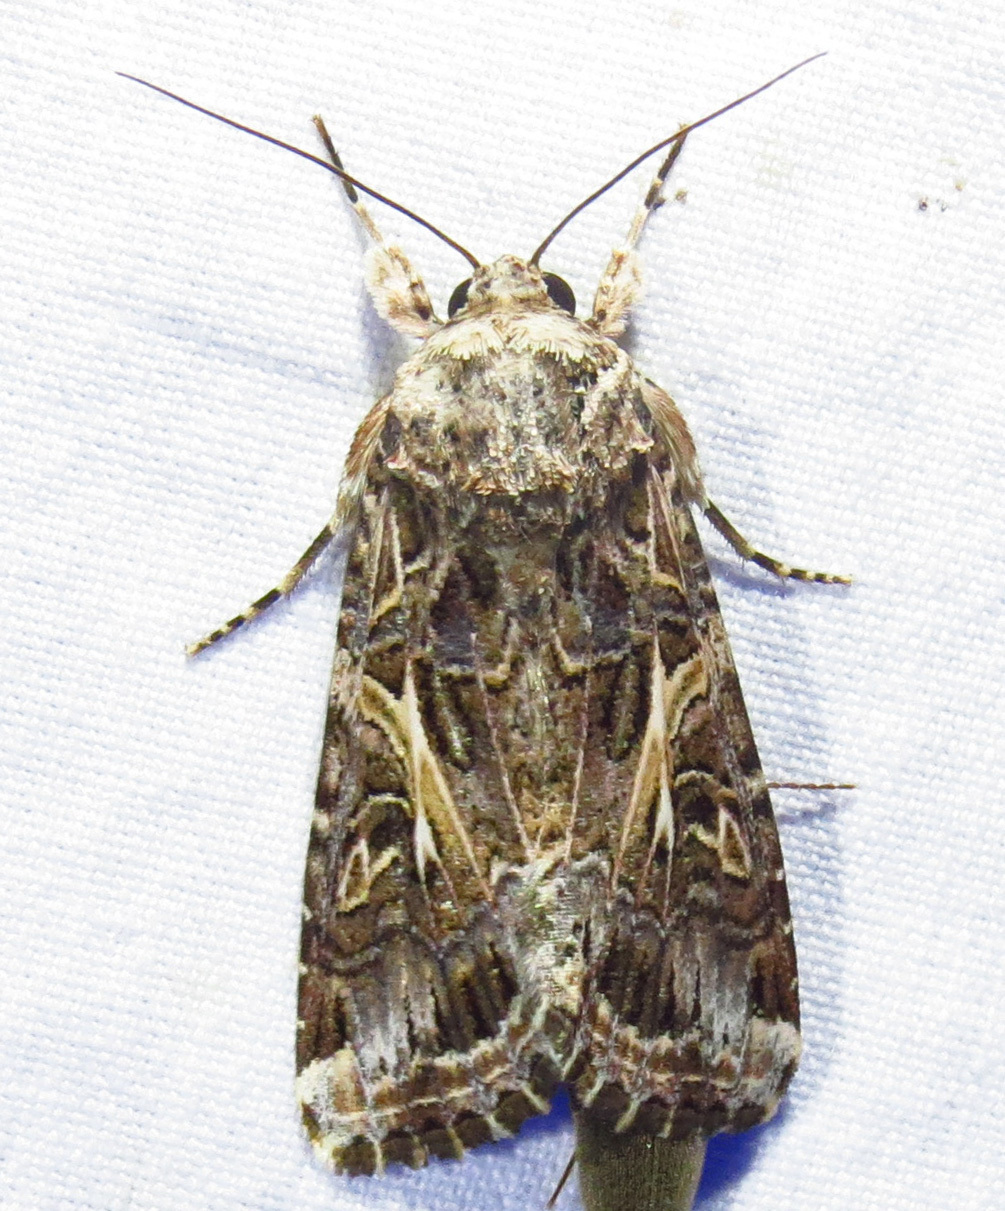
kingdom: Animalia
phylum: Arthropoda
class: Insecta
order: Lepidoptera
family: Noctuidae
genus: Spodoptera
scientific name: Spodoptera ornithogalli
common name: Yellow-striped armyworm
